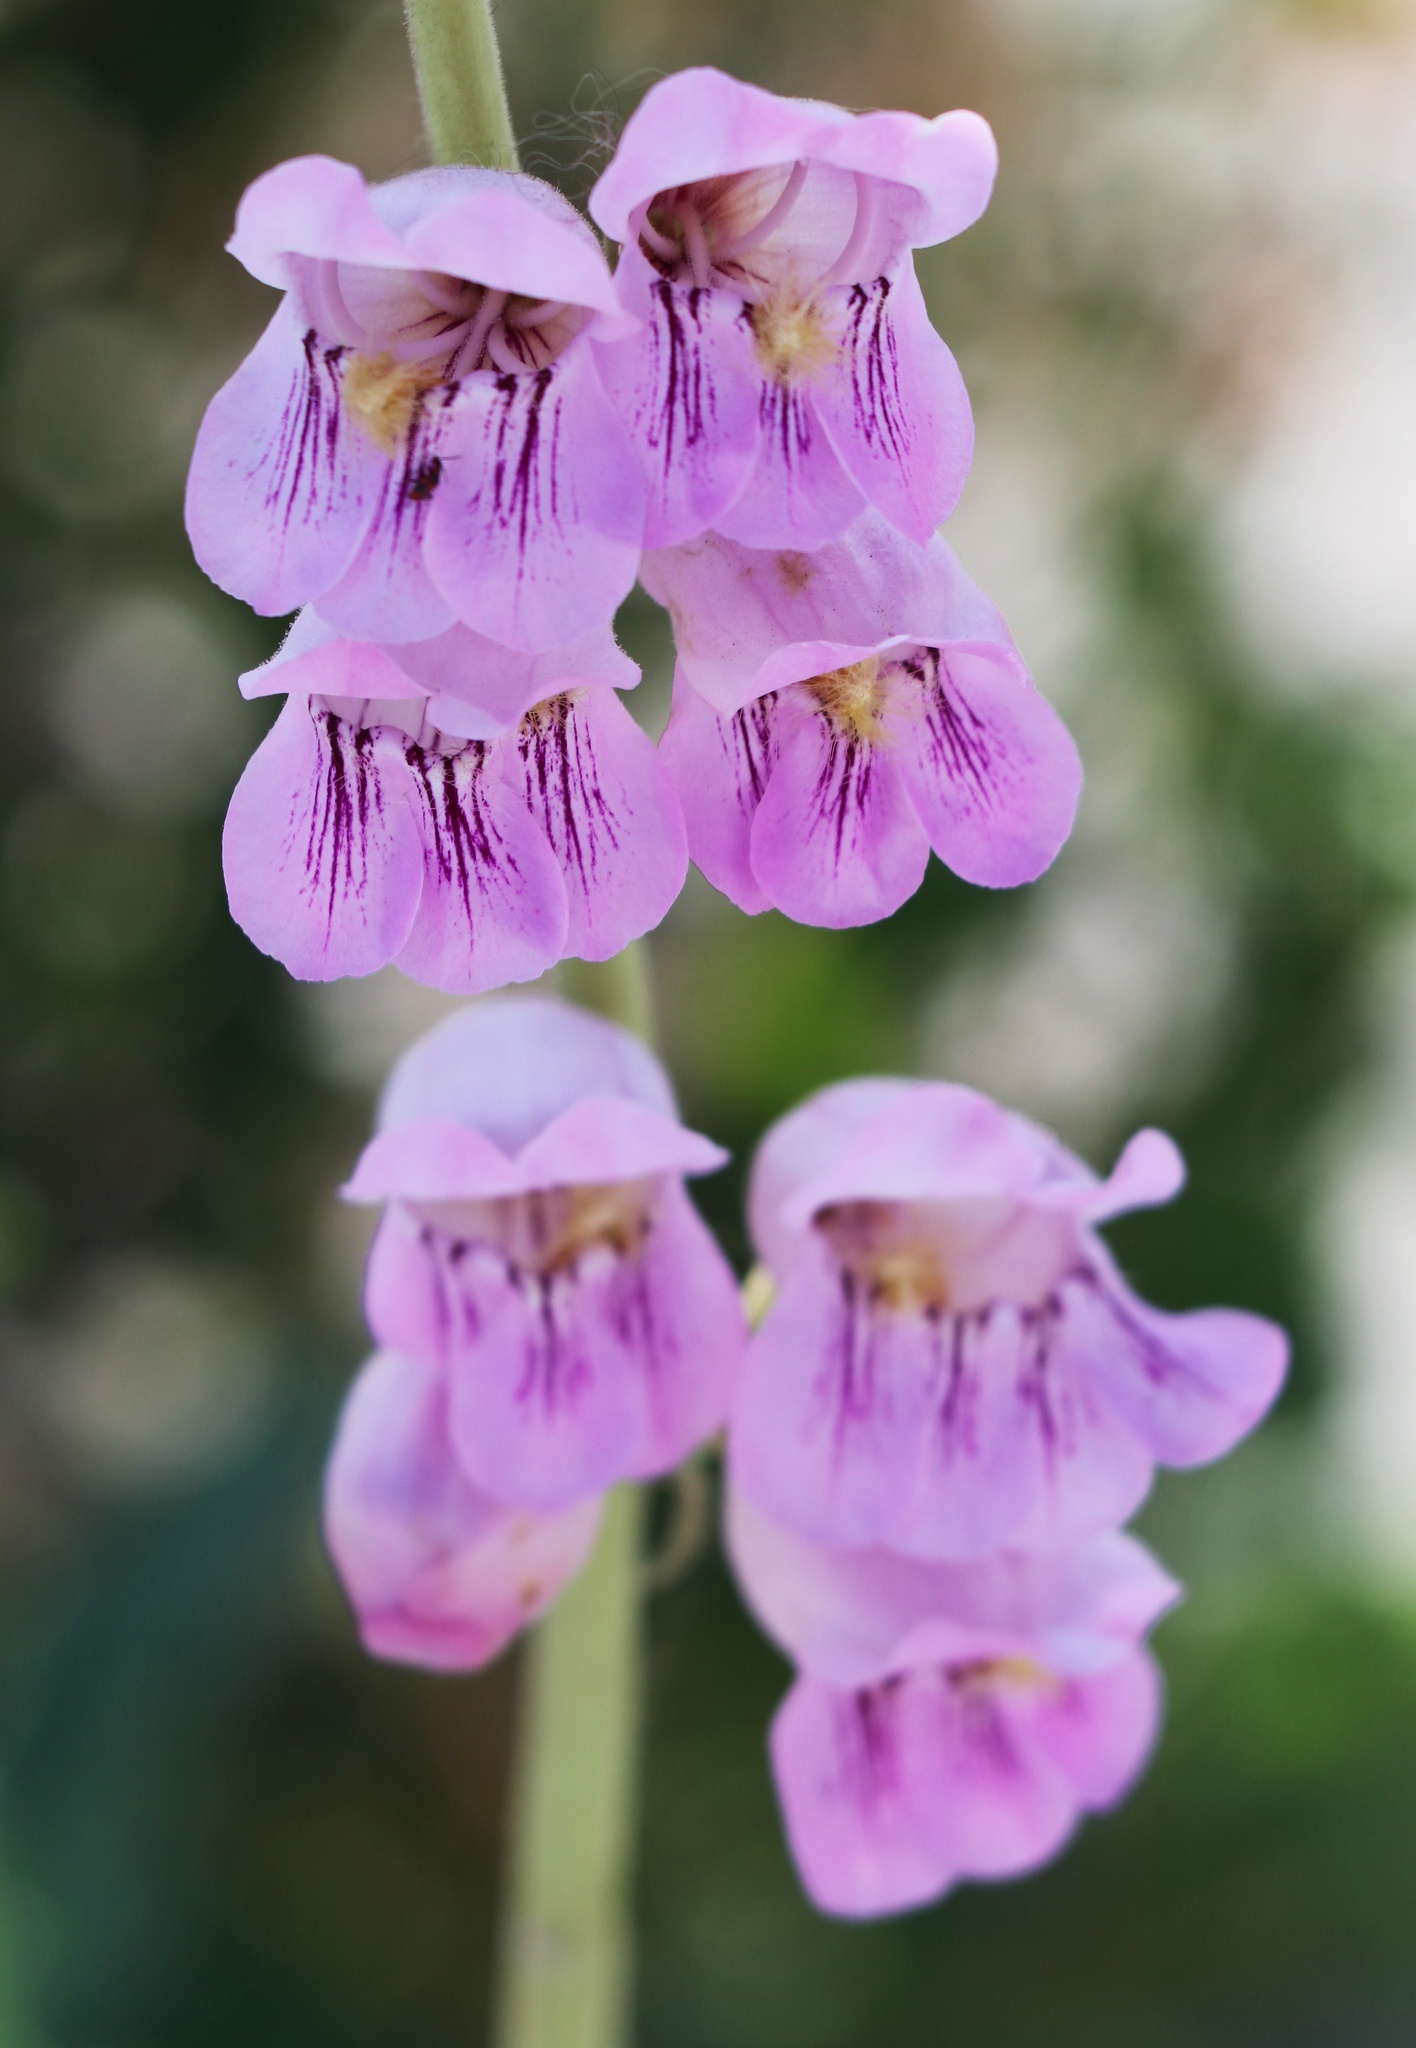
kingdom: Plantae
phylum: Tracheophyta
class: Magnoliopsida
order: Lamiales
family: Plantaginaceae
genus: Penstemon
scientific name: Penstemon palmeri
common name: Palmer penstemon
